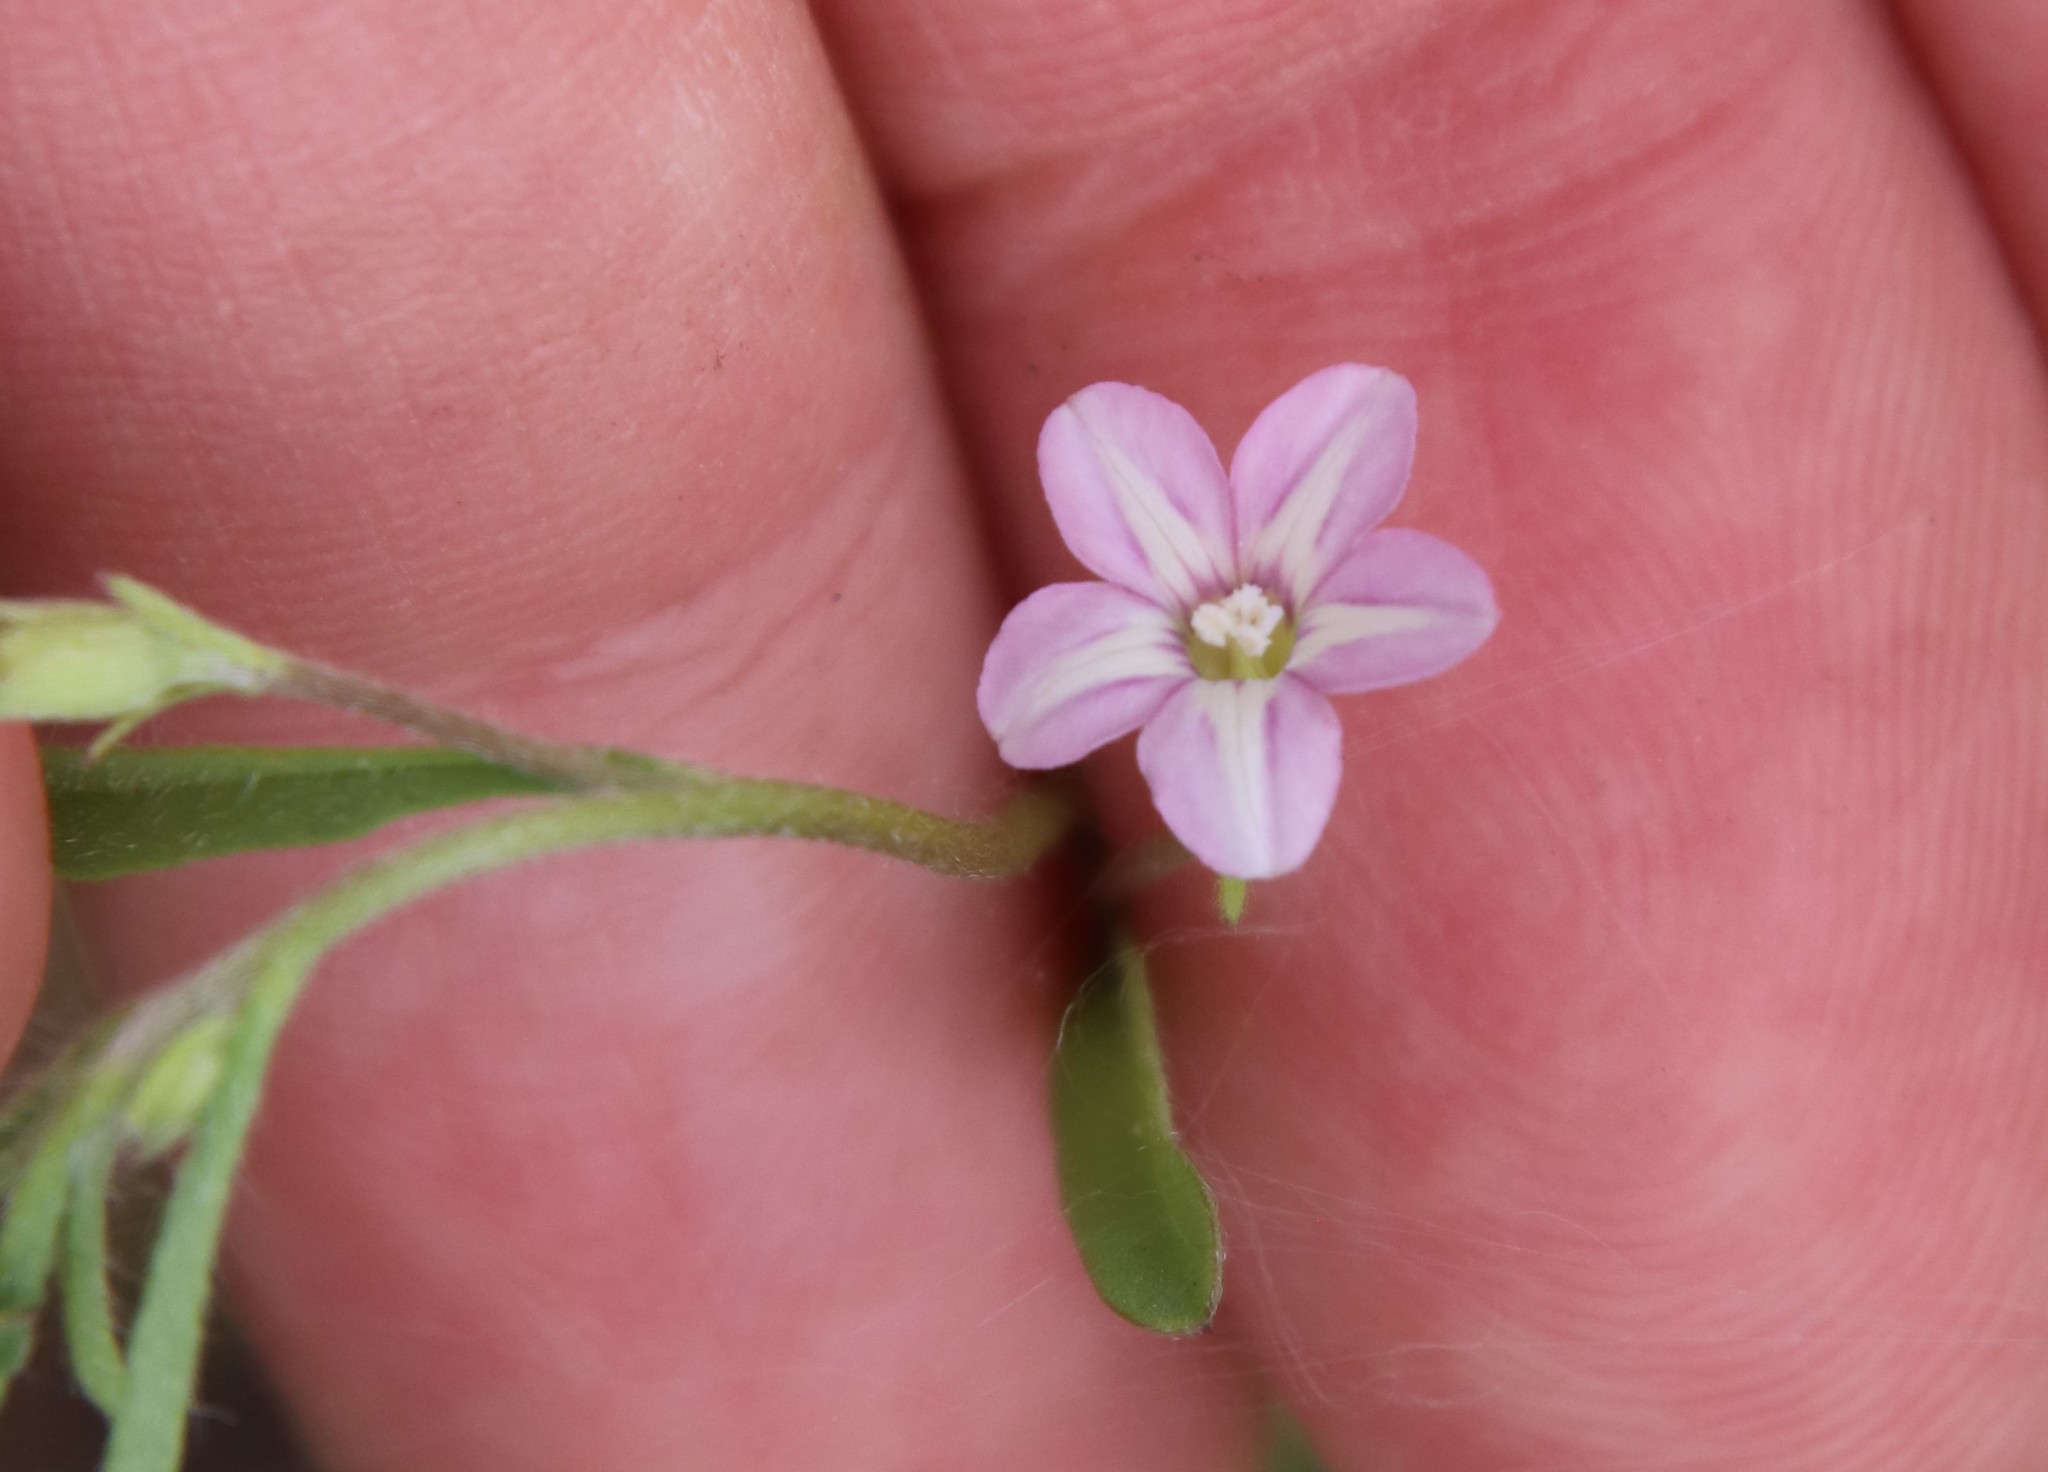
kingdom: Plantae
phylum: Tracheophyta
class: Magnoliopsida
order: Solanales
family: Convolvulaceae
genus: Convolvulus
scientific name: Convolvulus simulans
